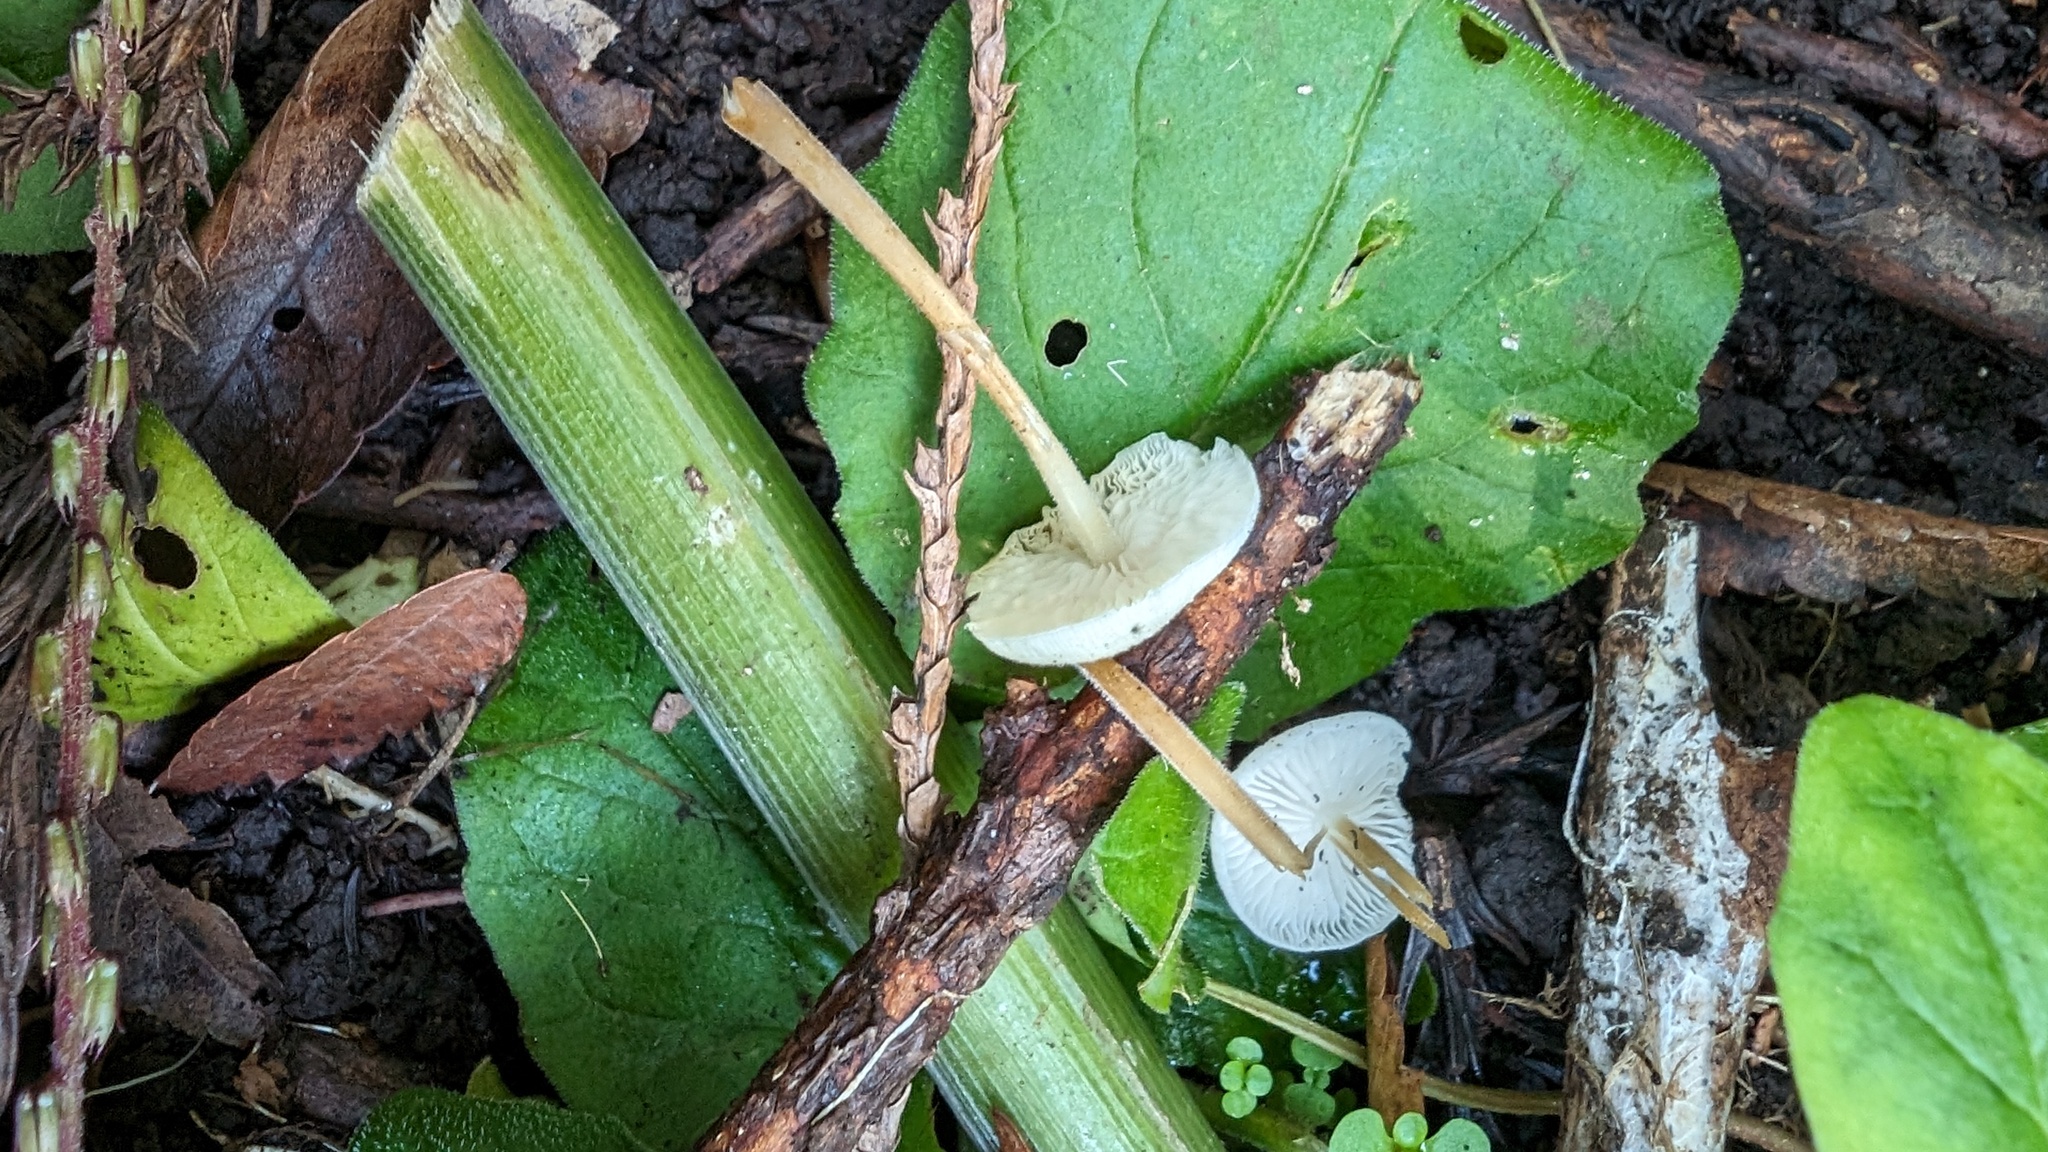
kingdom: Fungi
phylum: Basidiomycota
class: Agaricomycetes
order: Agaricales
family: Physalacriaceae
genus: Strobilurus
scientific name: Strobilurus ohshimae
